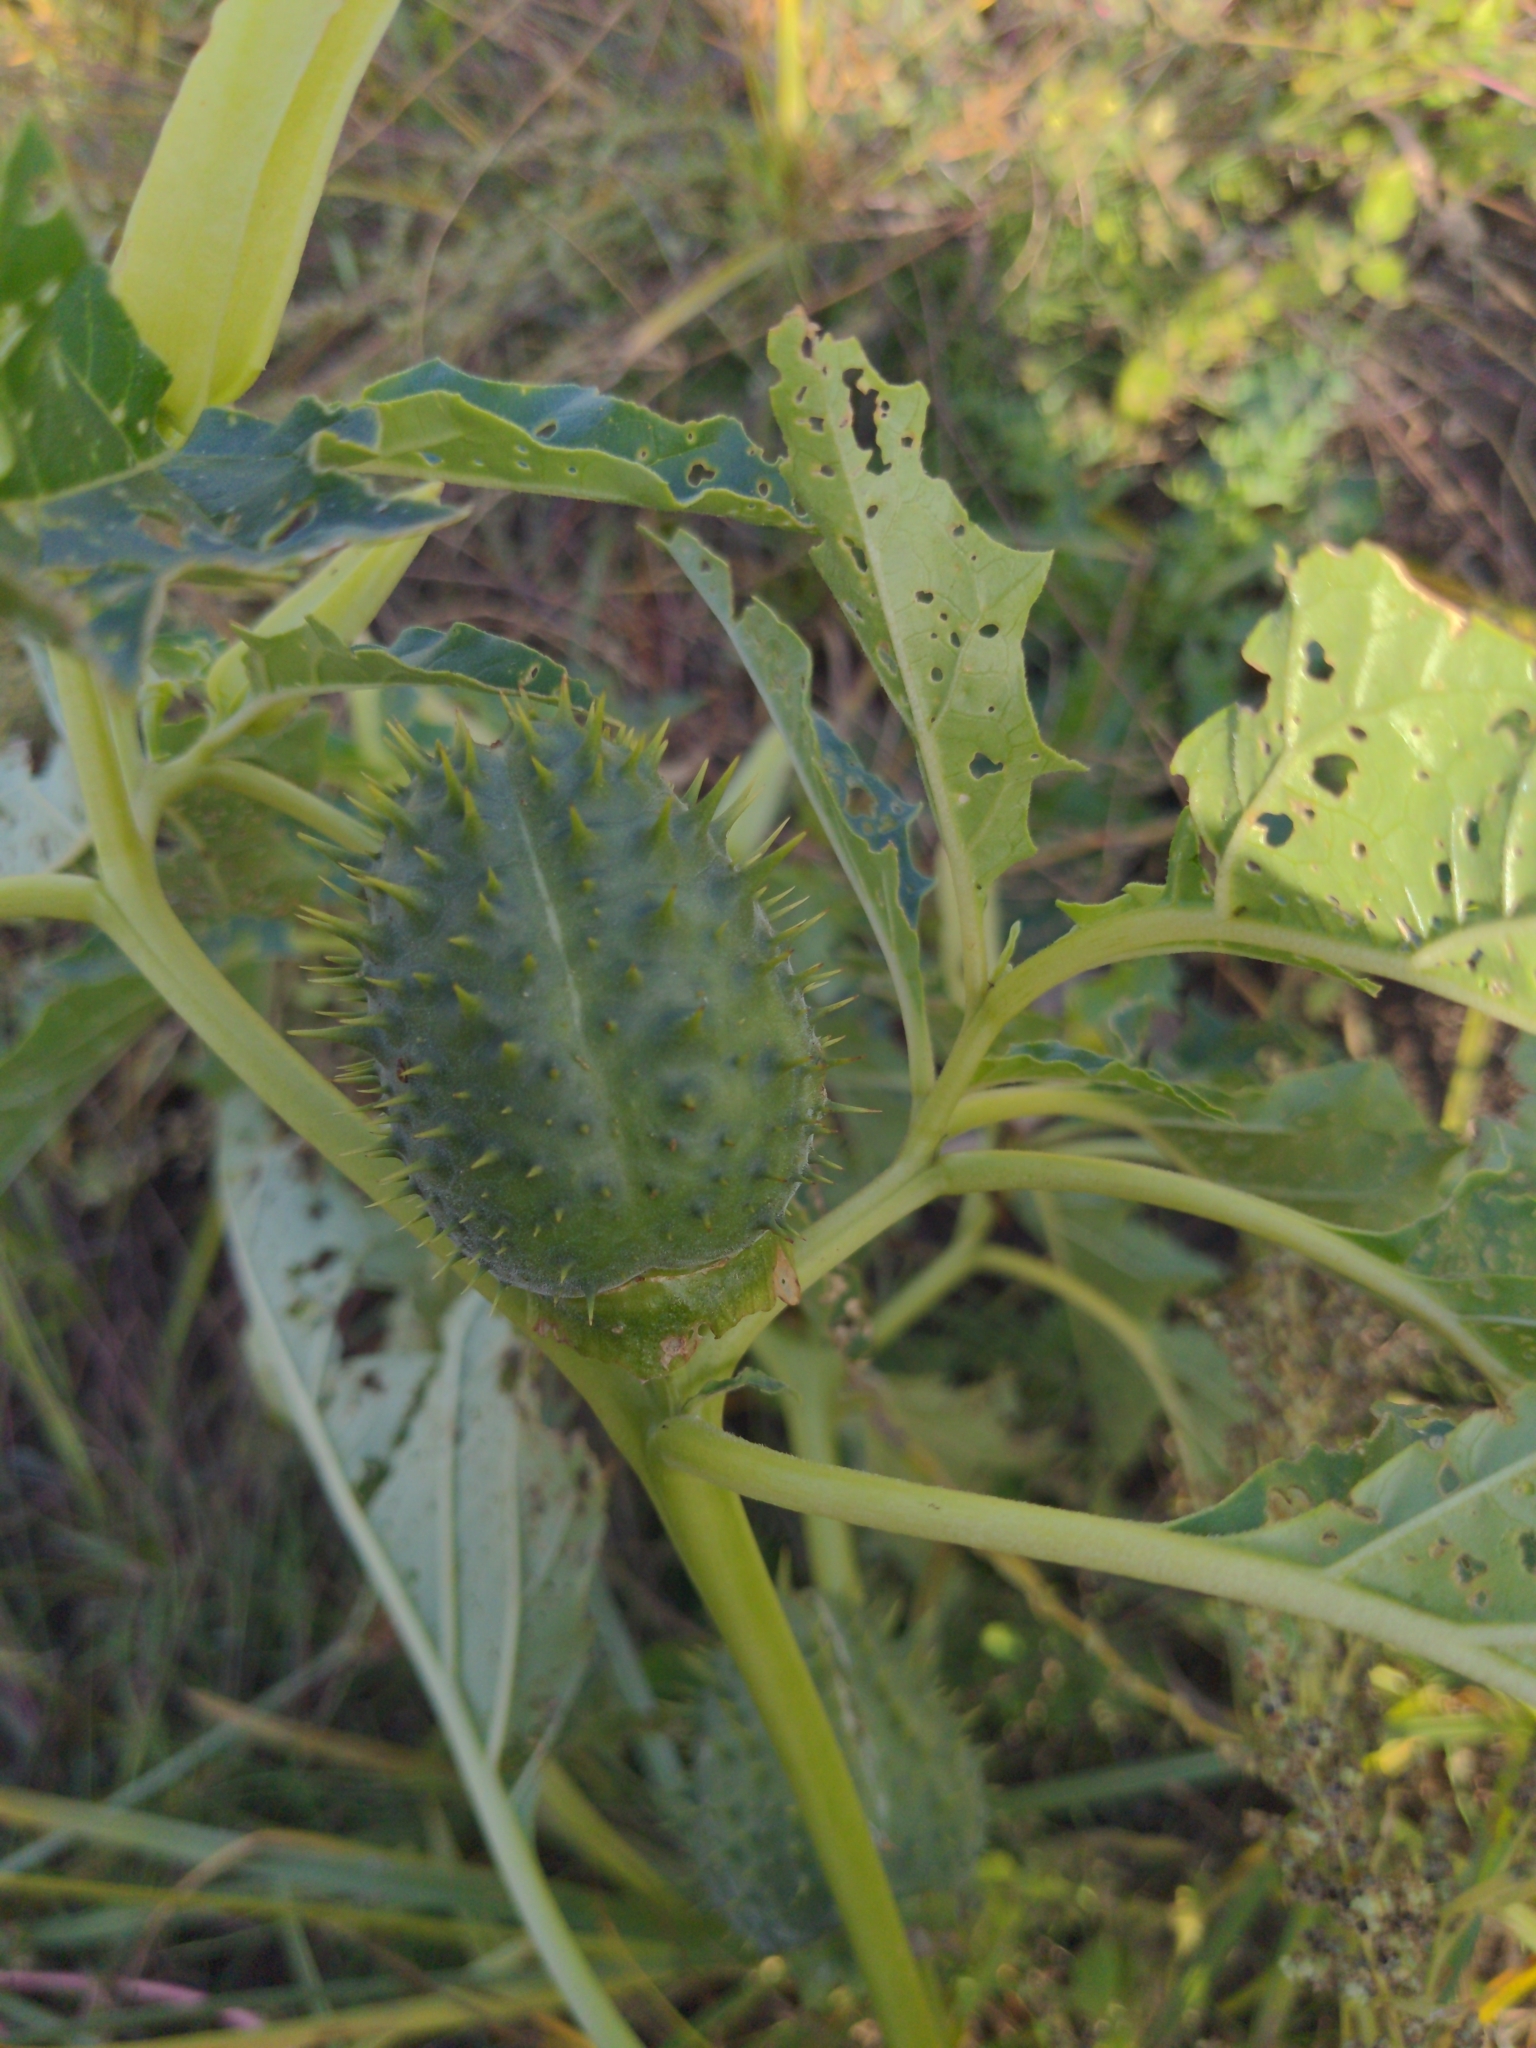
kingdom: Plantae
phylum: Tracheophyta
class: Magnoliopsida
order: Solanales
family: Solanaceae
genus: Datura
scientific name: Datura stramonium
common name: Thorn-apple
